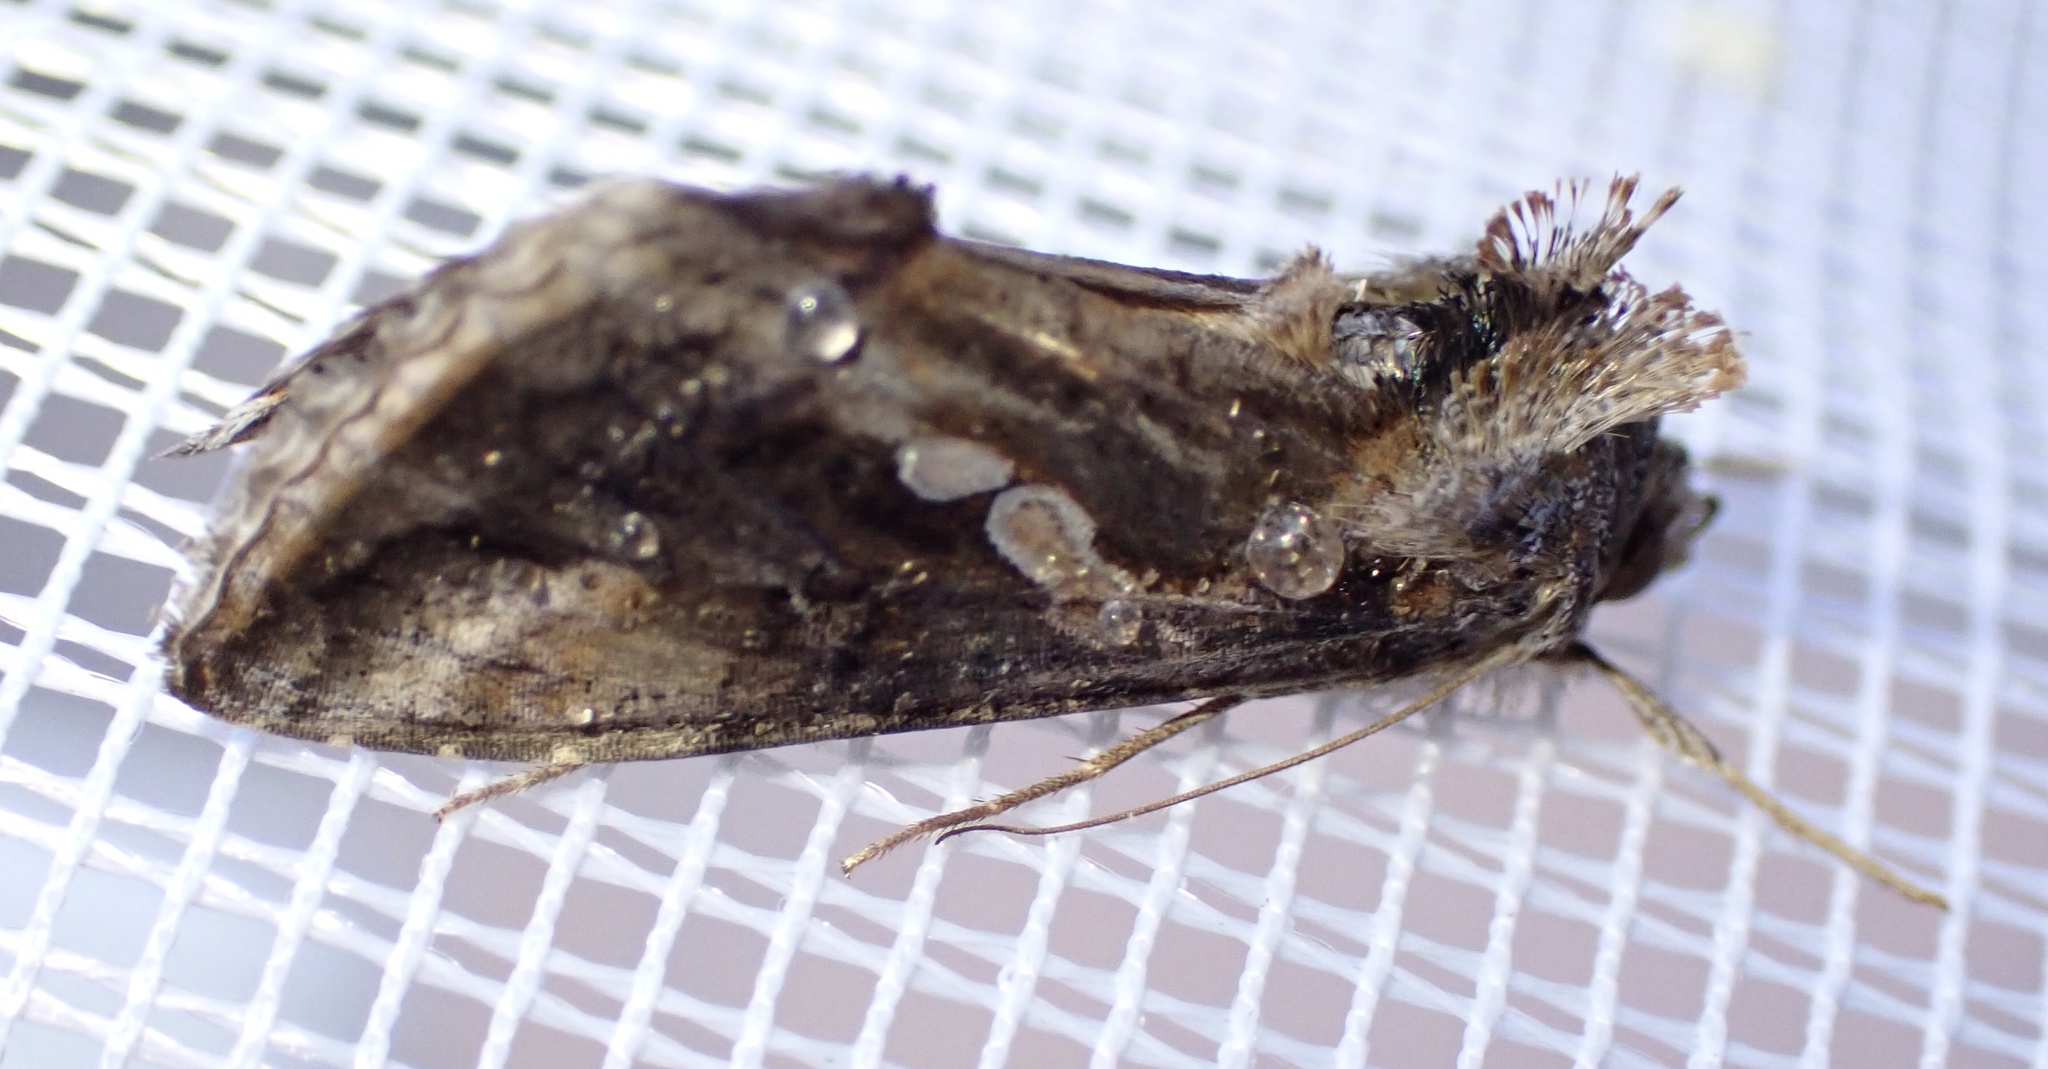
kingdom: Animalia
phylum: Arthropoda
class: Insecta
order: Lepidoptera
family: Noctuidae
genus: Chrysodeixis
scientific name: Chrysodeixis chalcites
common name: Golden twin-spot
